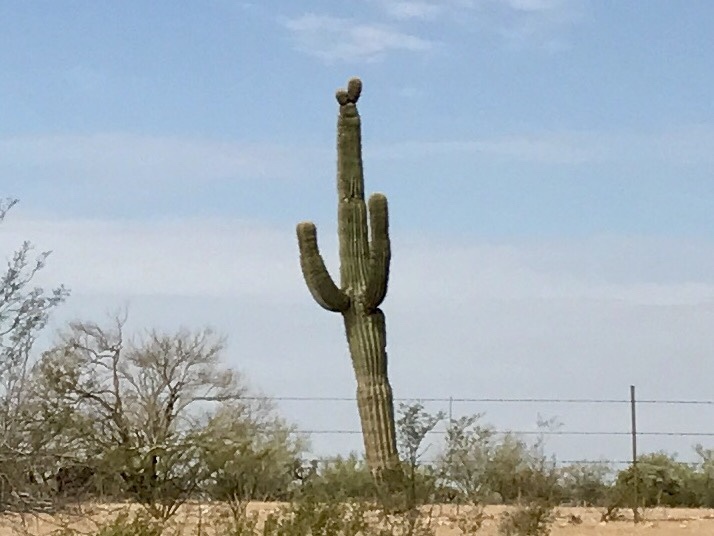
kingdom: Plantae
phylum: Tracheophyta
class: Magnoliopsida
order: Caryophyllales
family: Cactaceae
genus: Carnegiea
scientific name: Carnegiea gigantea
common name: Saguaro
